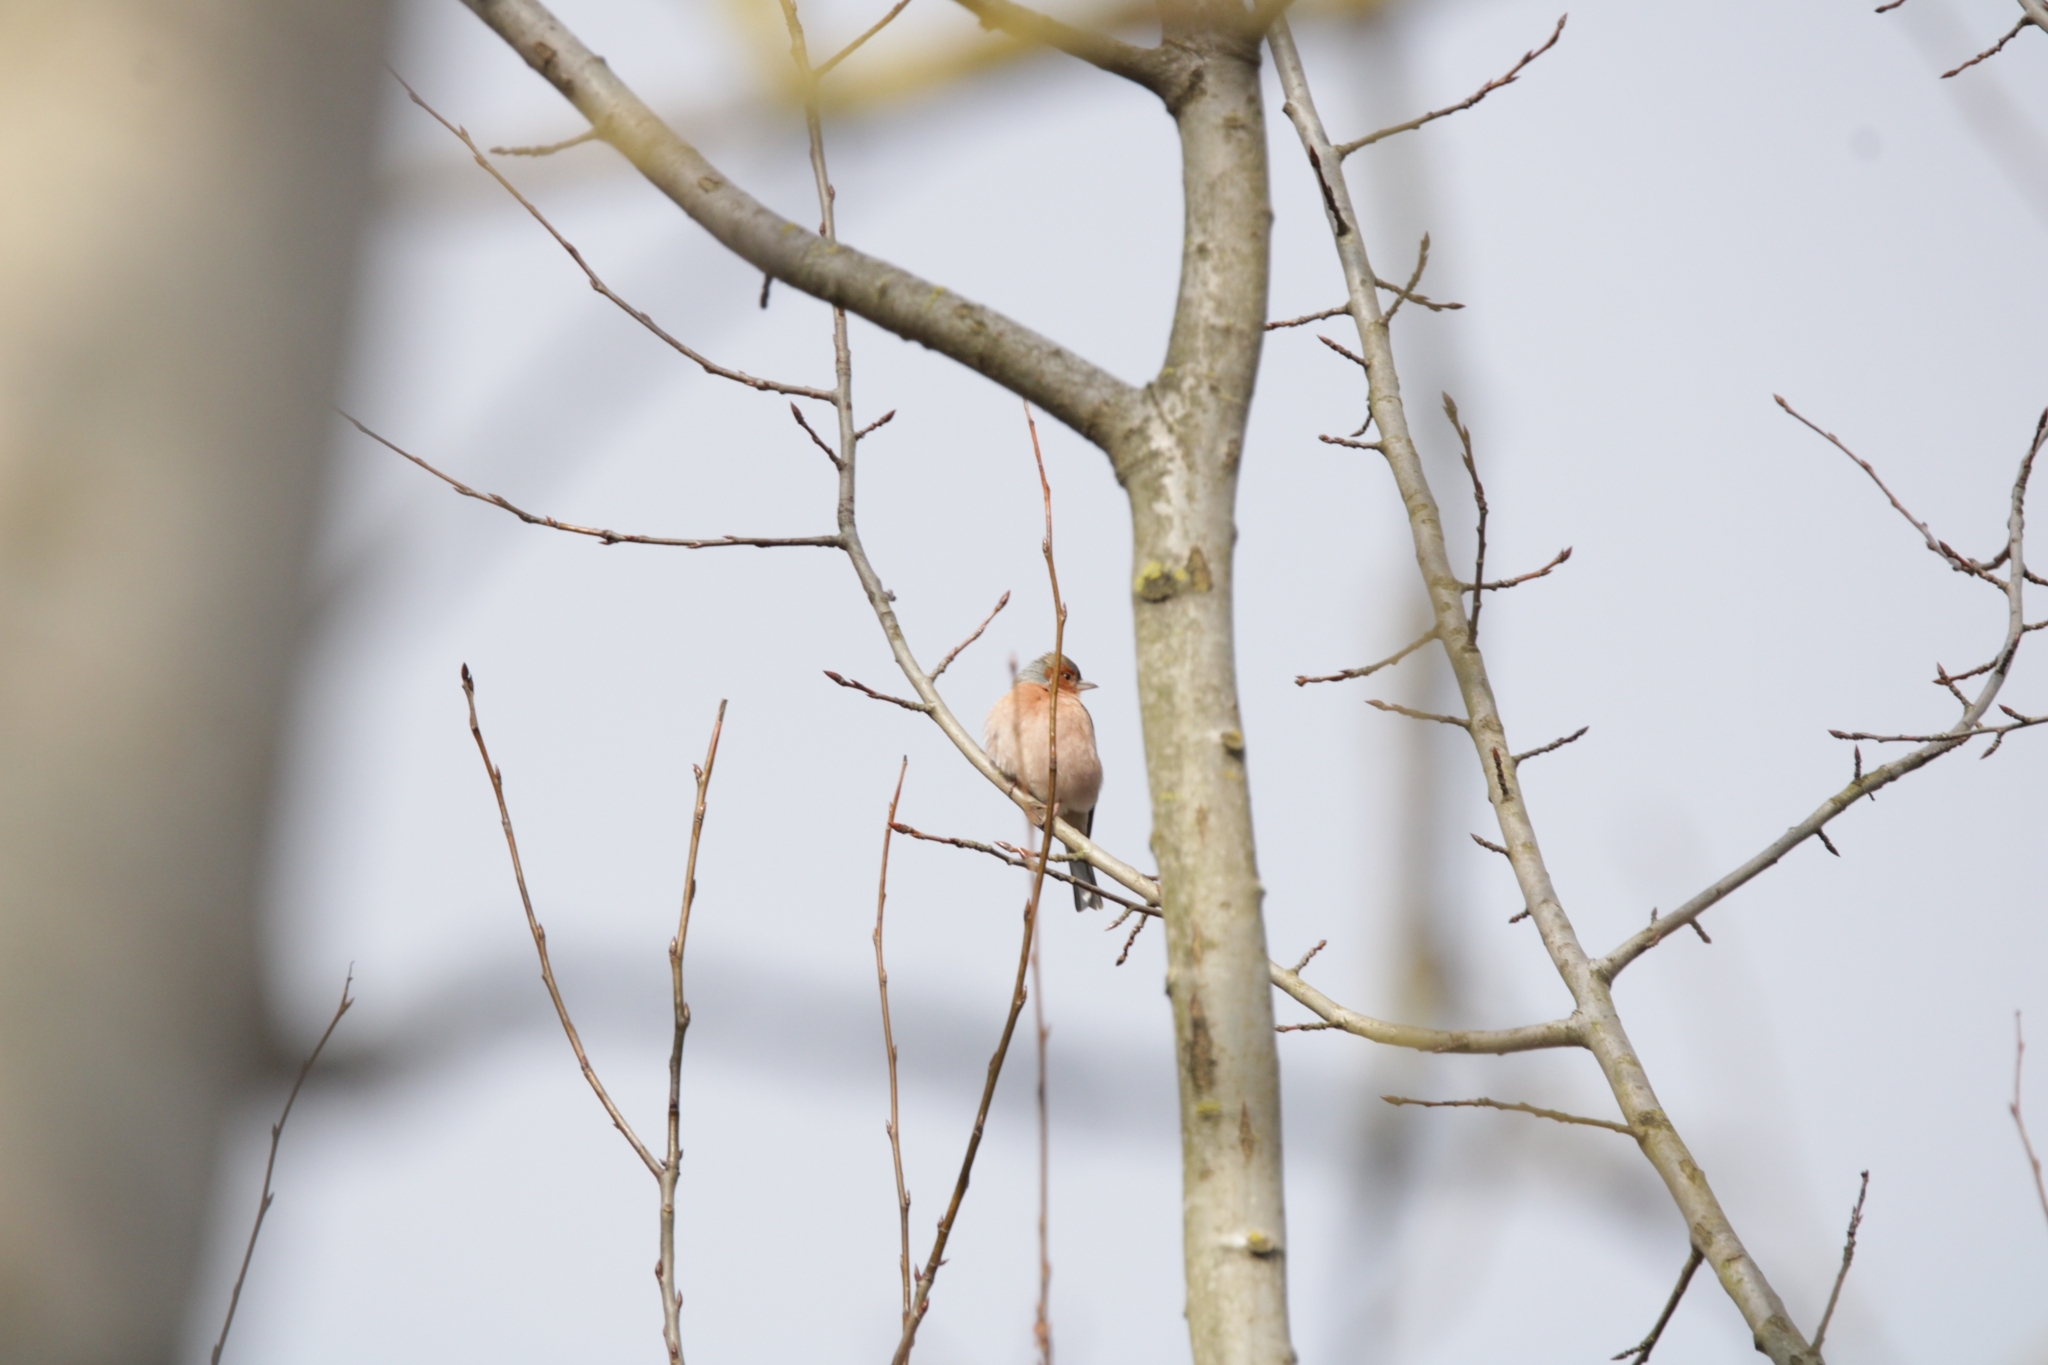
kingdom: Animalia
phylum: Chordata
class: Aves
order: Passeriformes
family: Fringillidae
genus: Fringilla
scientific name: Fringilla coelebs
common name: Common chaffinch
